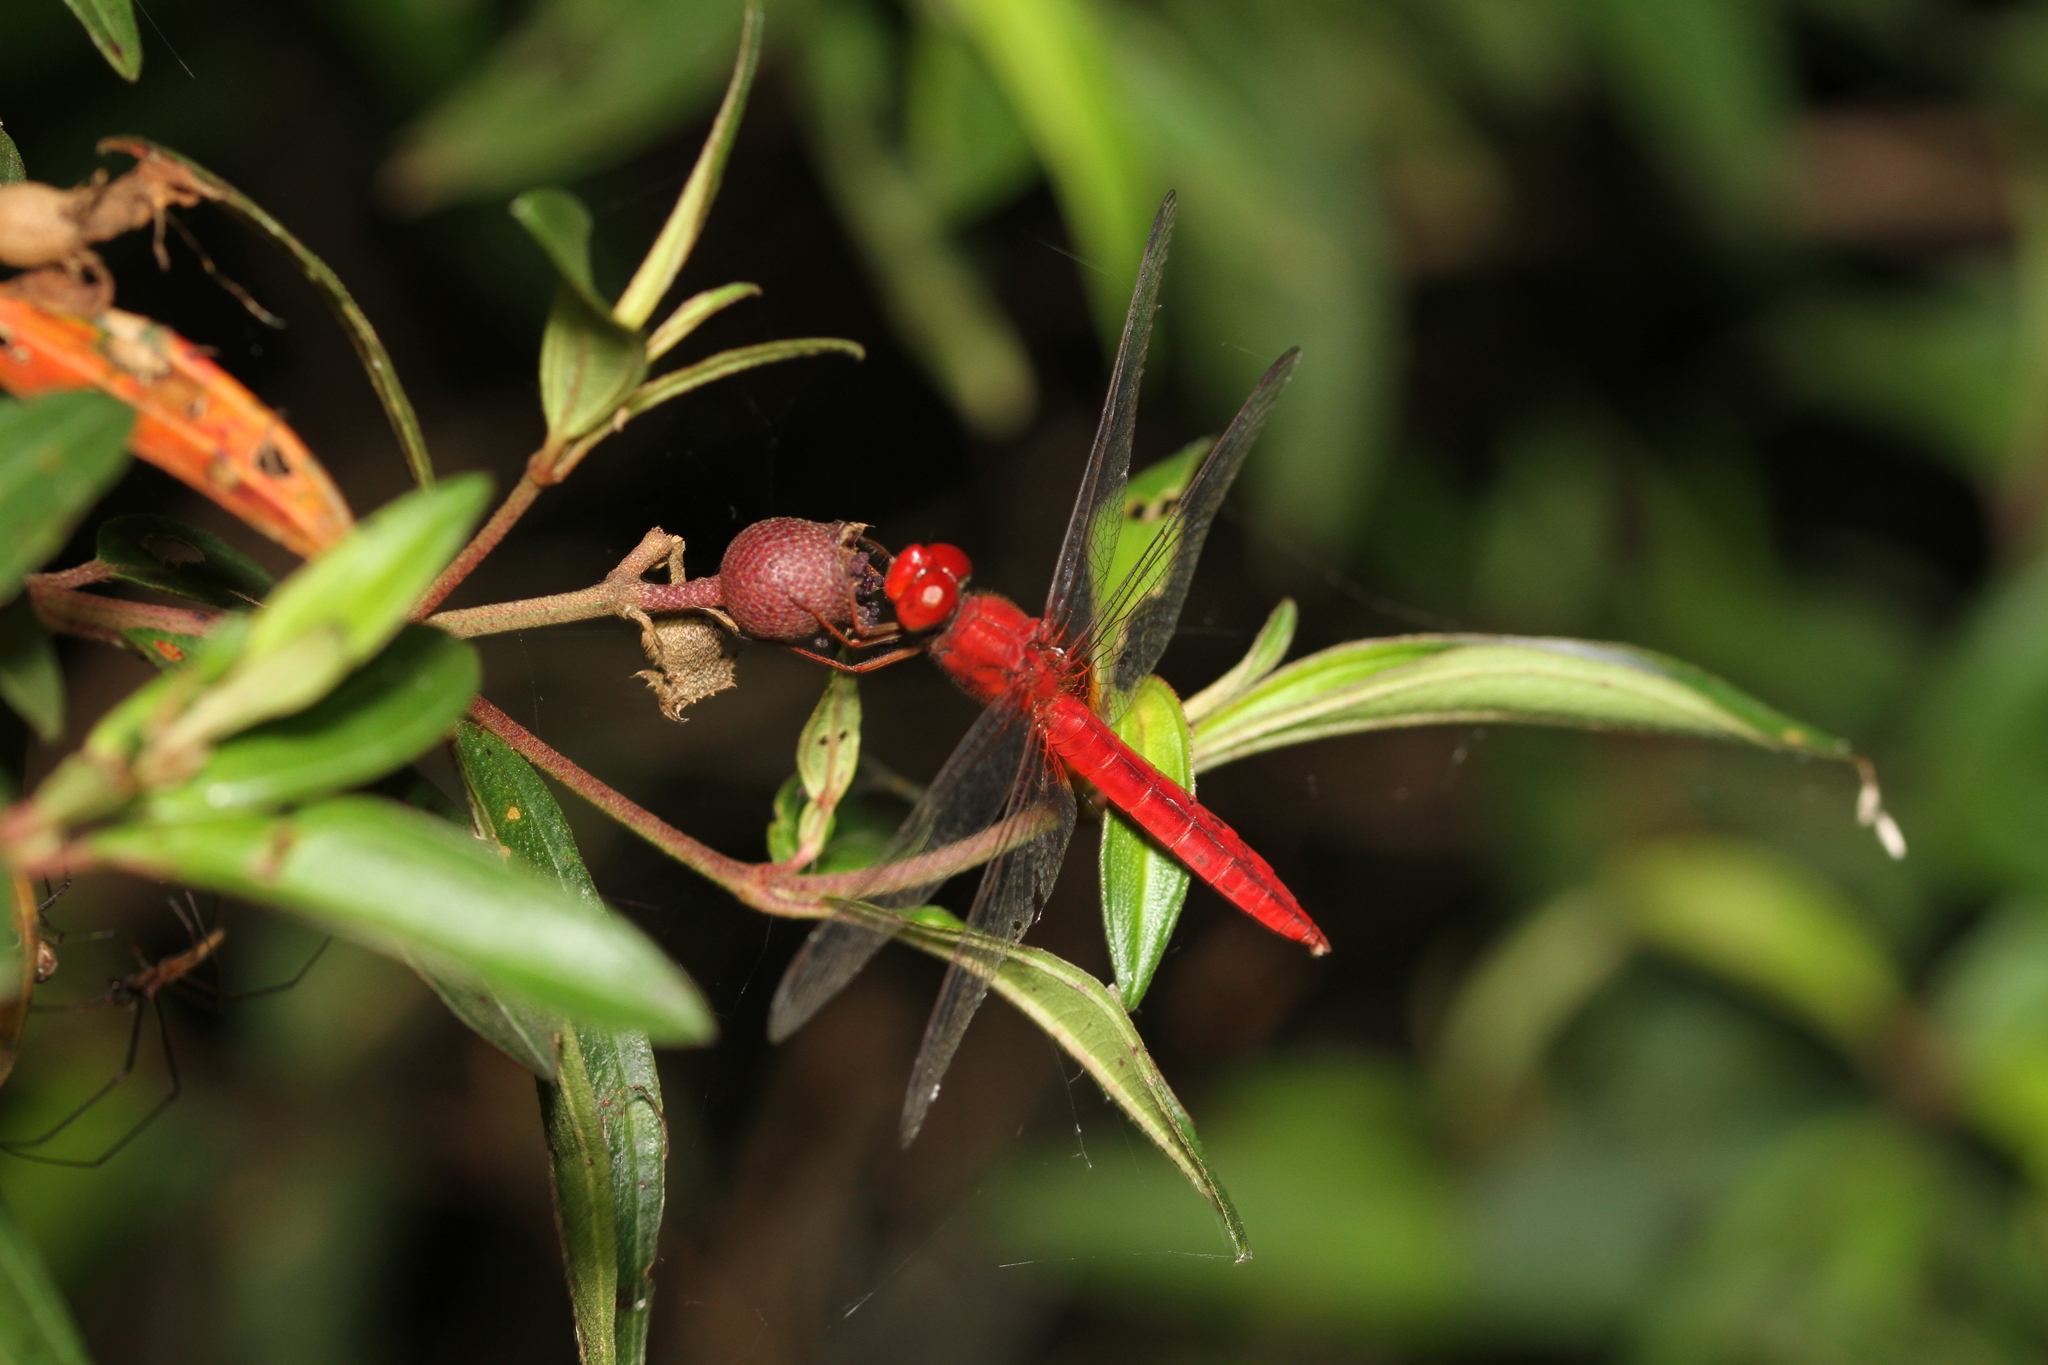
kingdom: Animalia
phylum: Arthropoda
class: Insecta
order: Odonata
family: Libellulidae
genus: Crocothemis
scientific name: Crocothemis servilia
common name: Scarlet skimmer
